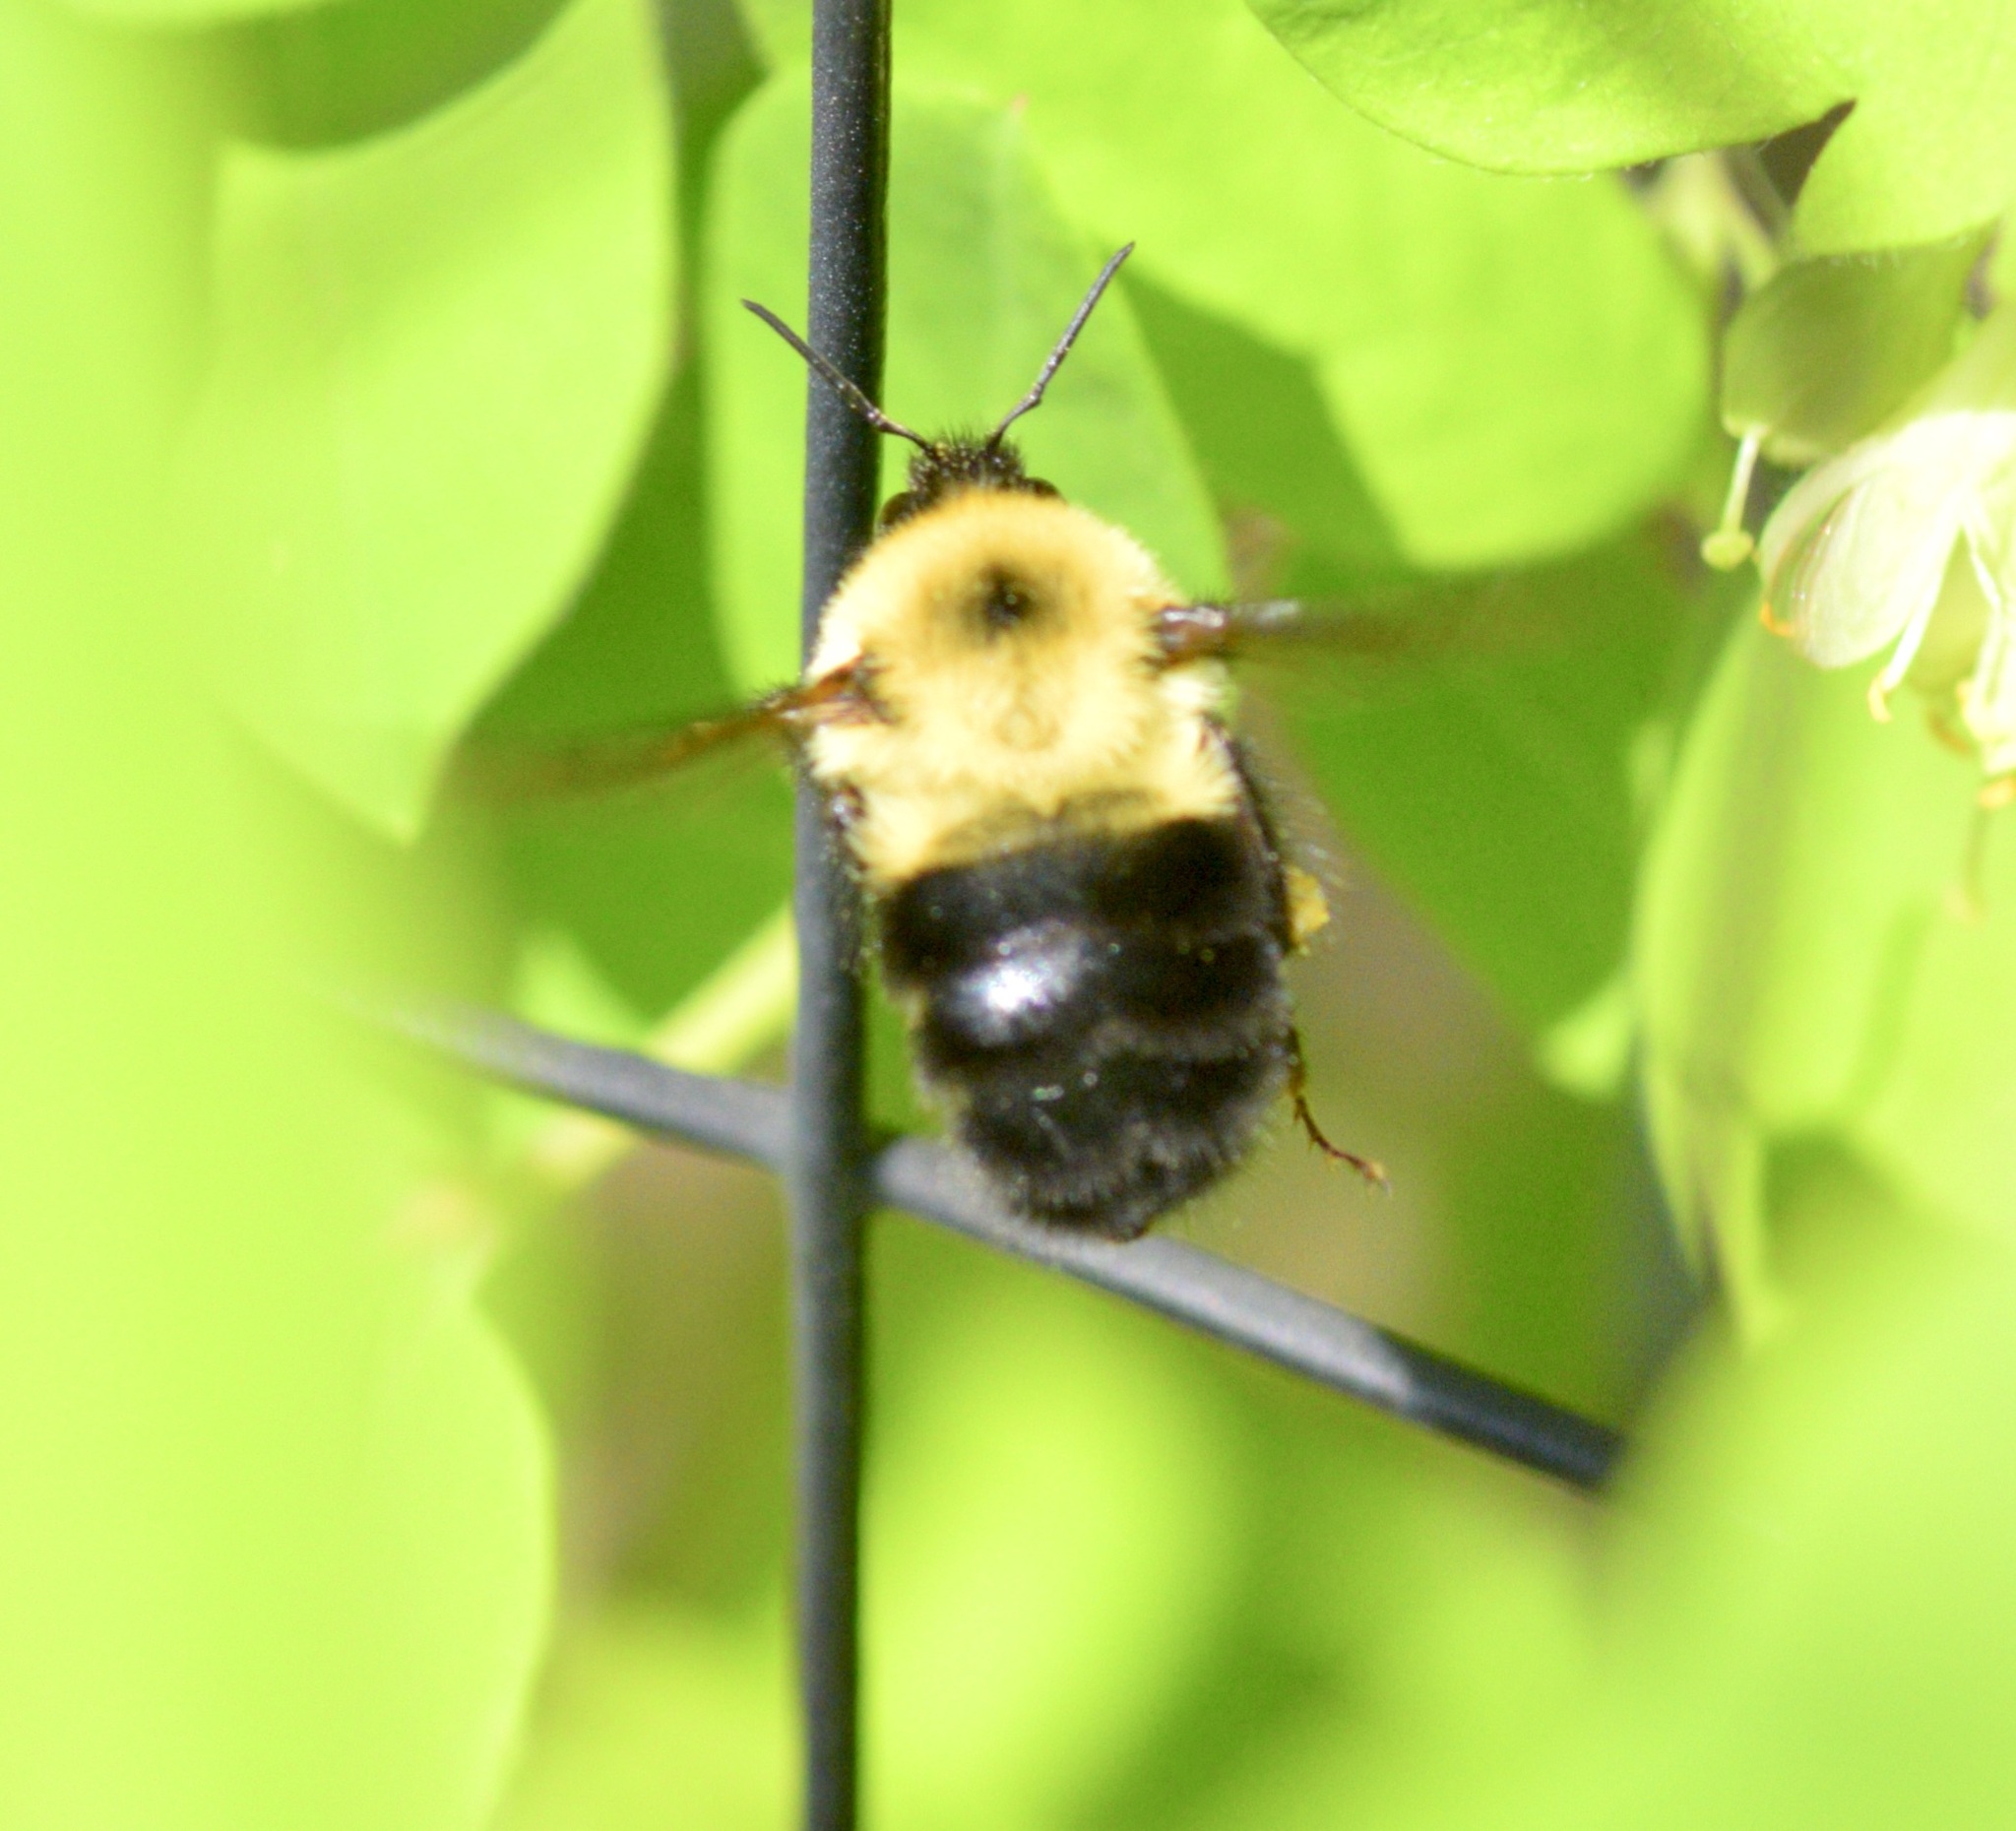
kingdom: Animalia
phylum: Arthropoda
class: Insecta
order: Hymenoptera
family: Apidae
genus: Bombus
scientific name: Bombus bimaculatus
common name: Two-spotted bumble bee
